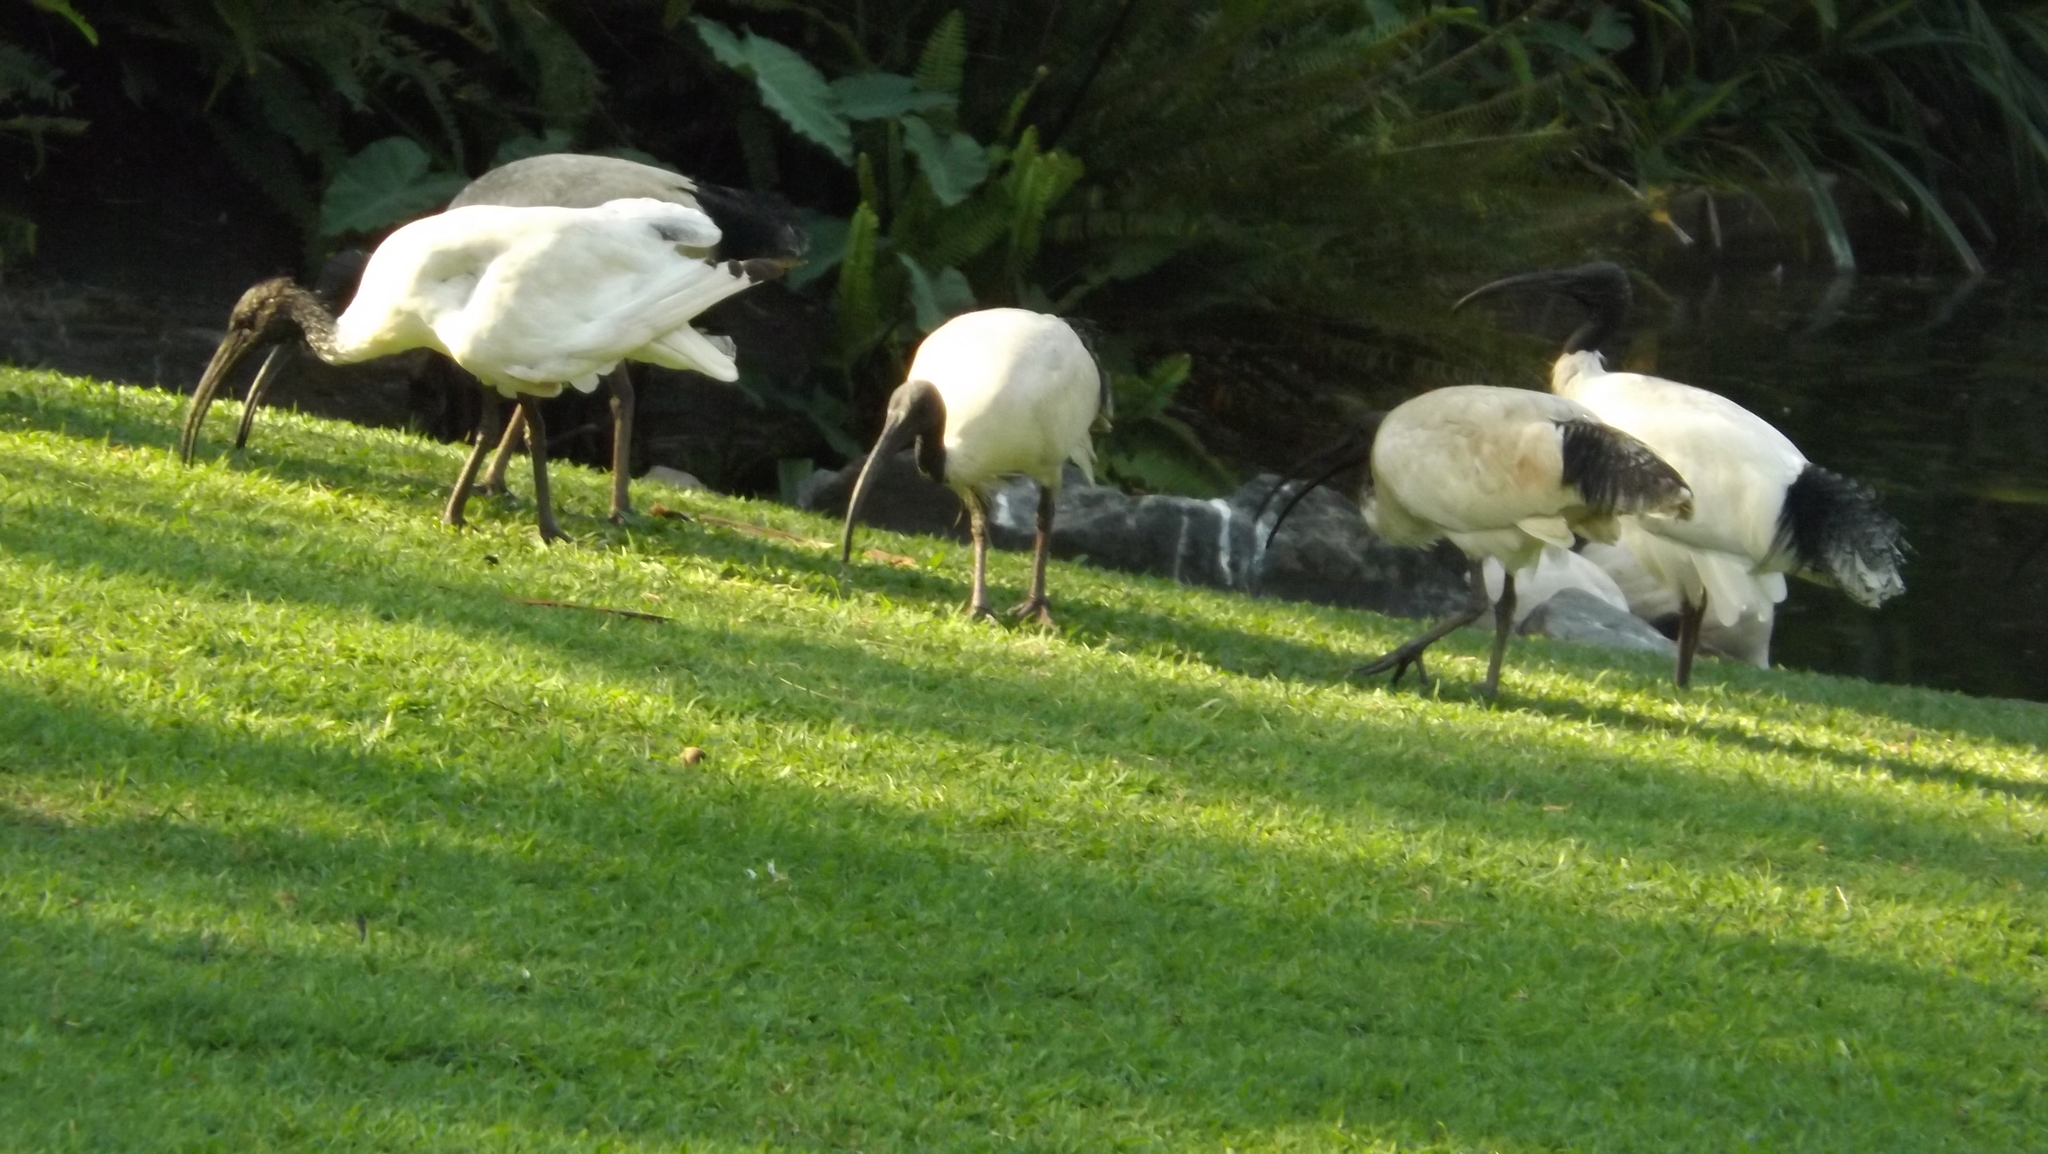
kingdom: Animalia
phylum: Chordata
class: Aves
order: Pelecaniformes
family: Threskiornithidae
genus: Threskiornis
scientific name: Threskiornis molucca
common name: Australian white ibis
